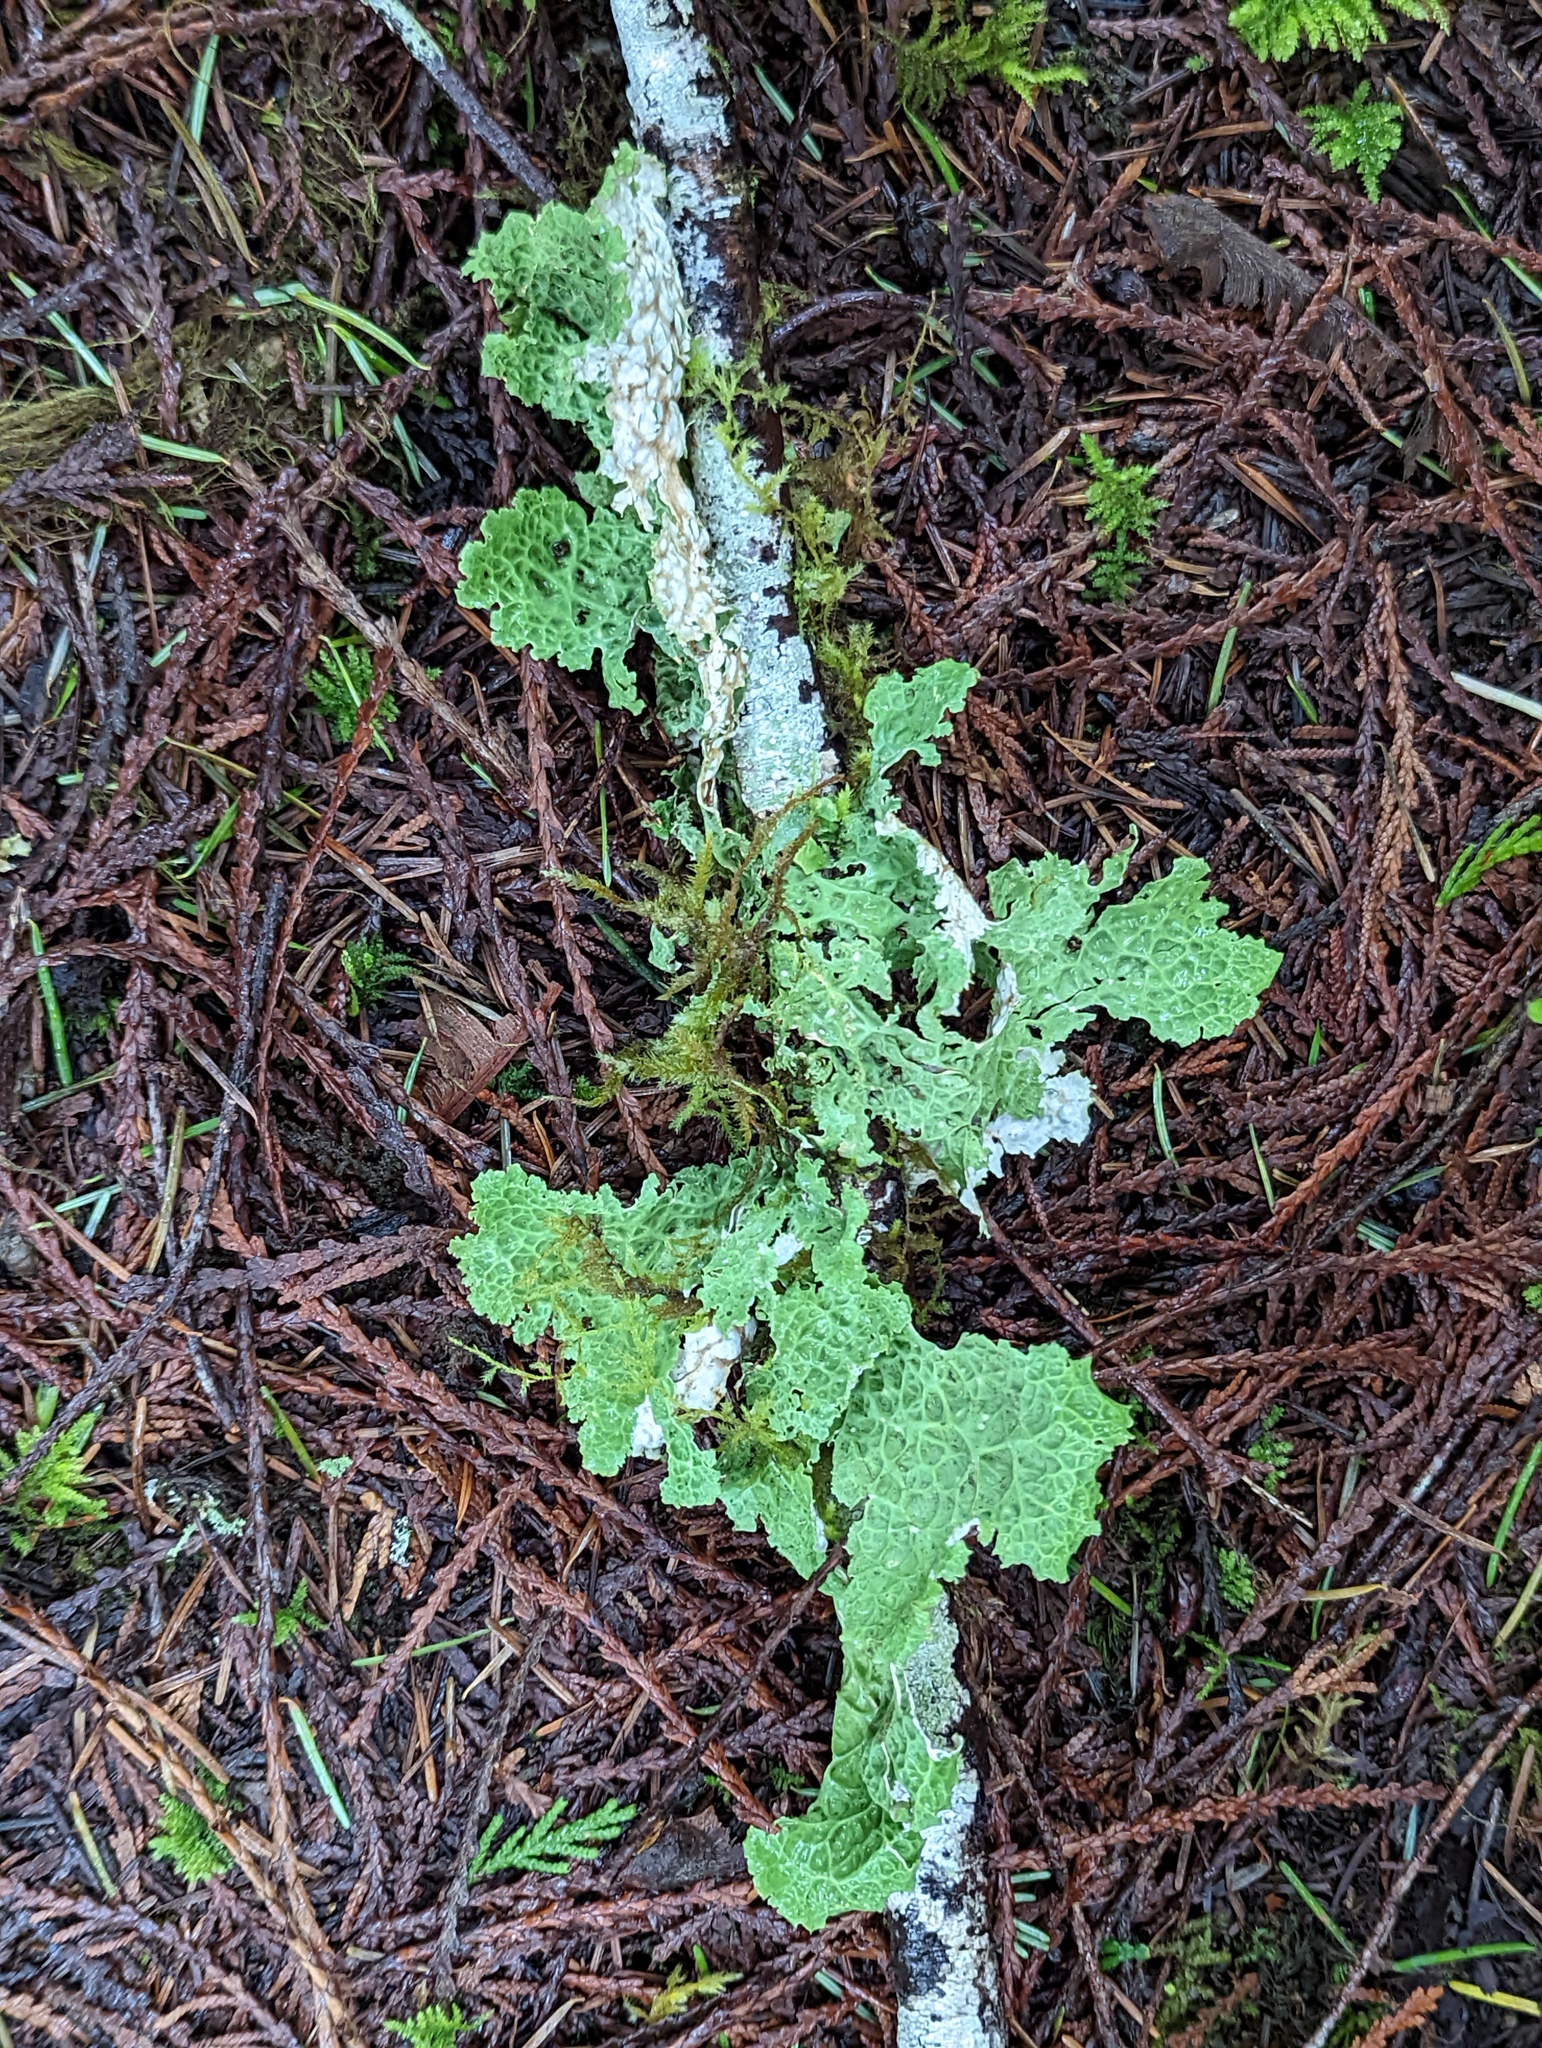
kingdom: Fungi
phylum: Ascomycota
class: Lecanoromycetes
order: Peltigerales
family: Lobariaceae
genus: Lobaria
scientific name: Lobaria oregana
